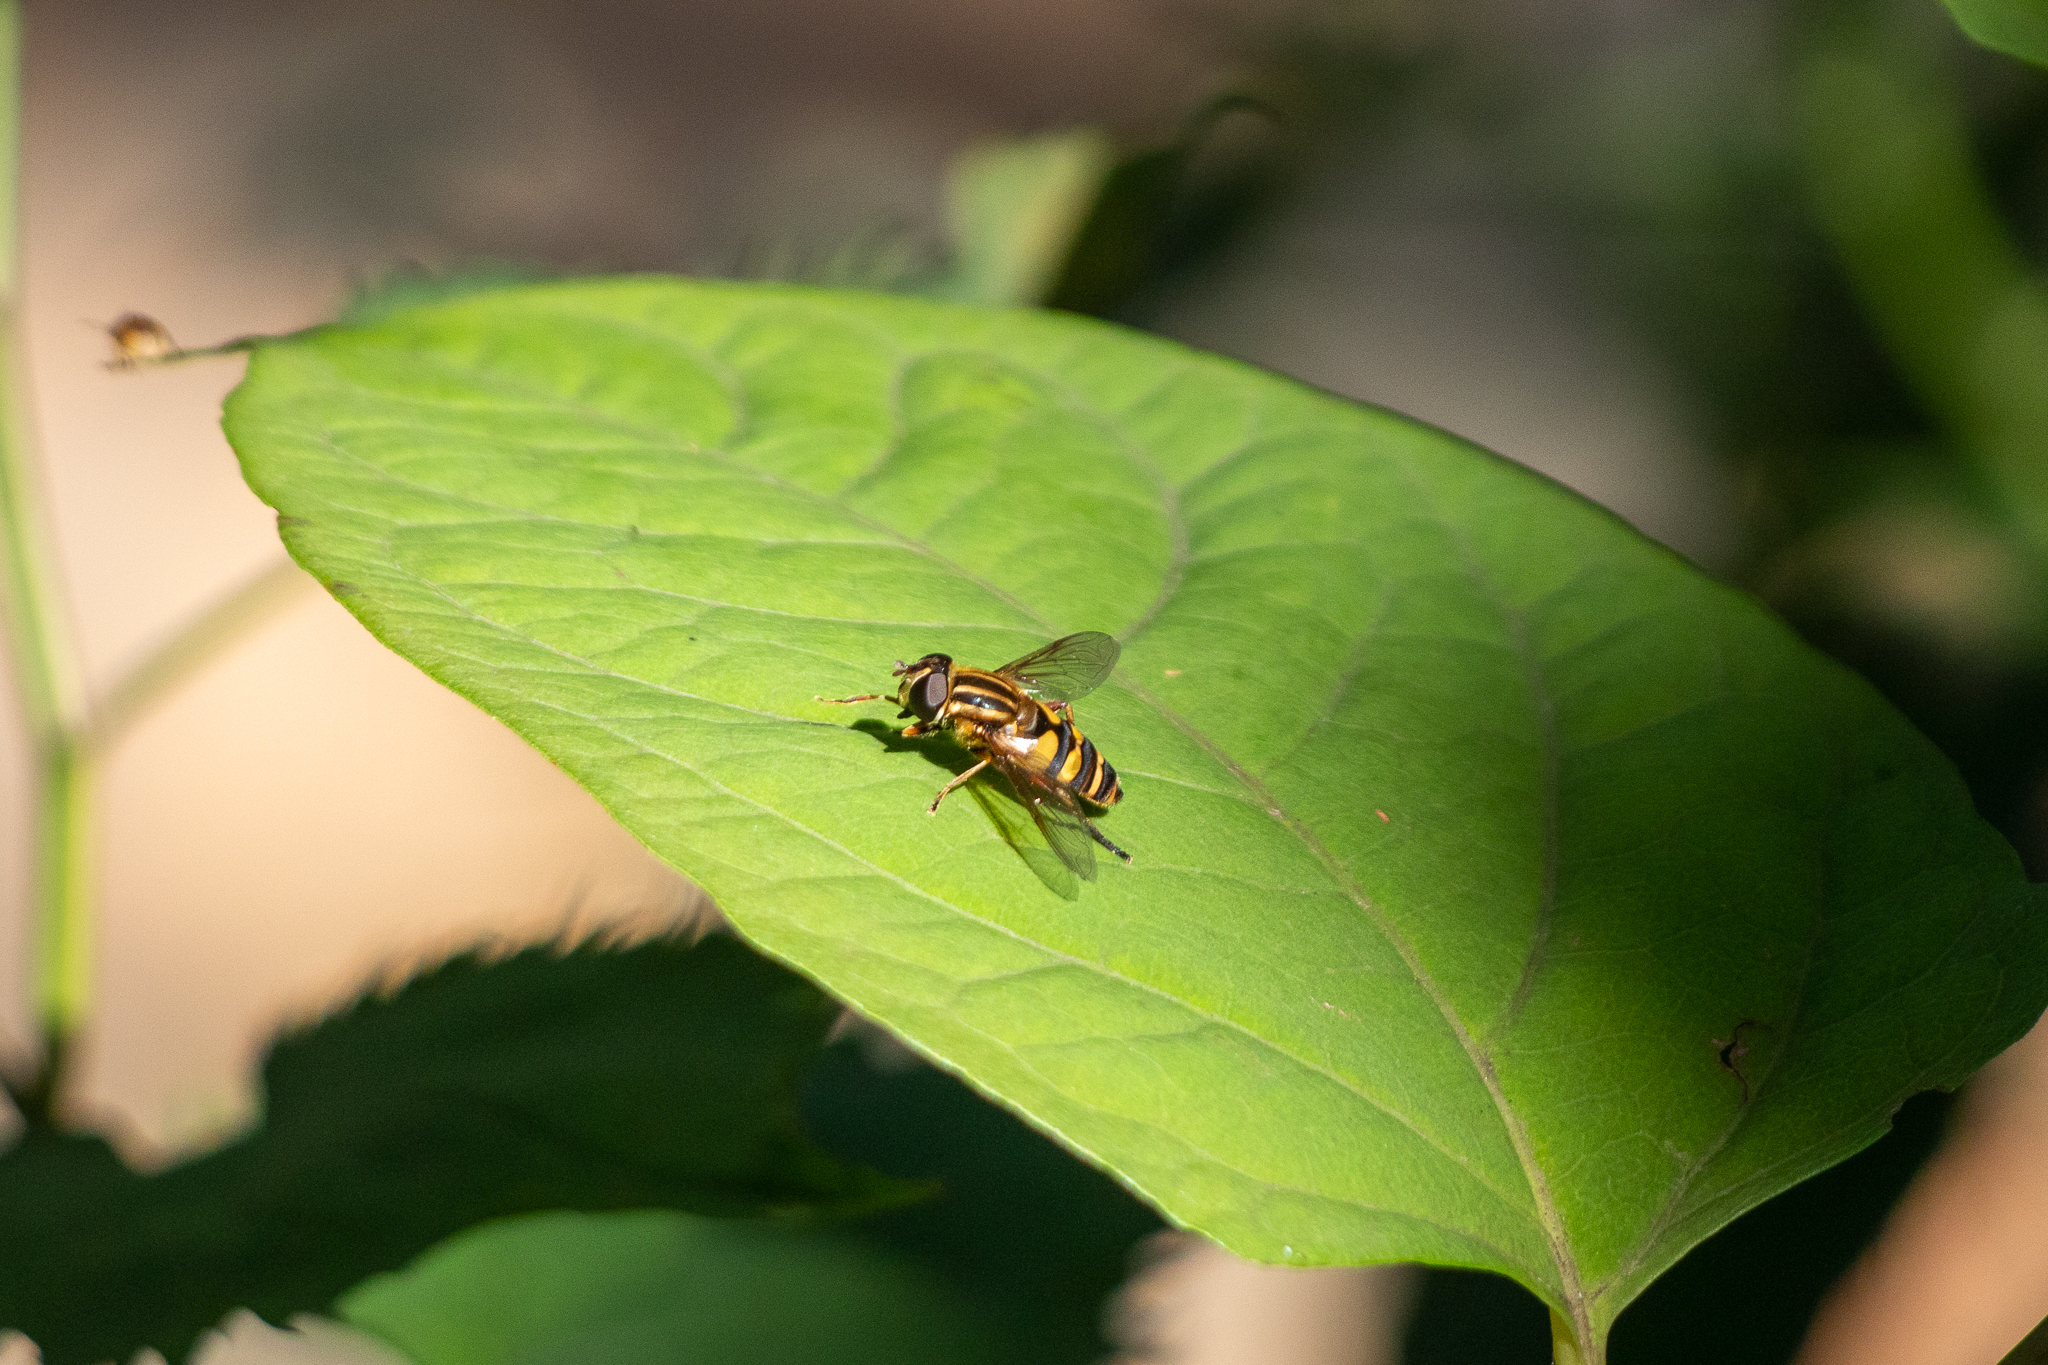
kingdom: Animalia
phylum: Arthropoda
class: Insecta
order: Diptera
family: Syrphidae
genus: Helophilus
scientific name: Helophilus fasciatus
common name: Narrow-headed marsh fly
